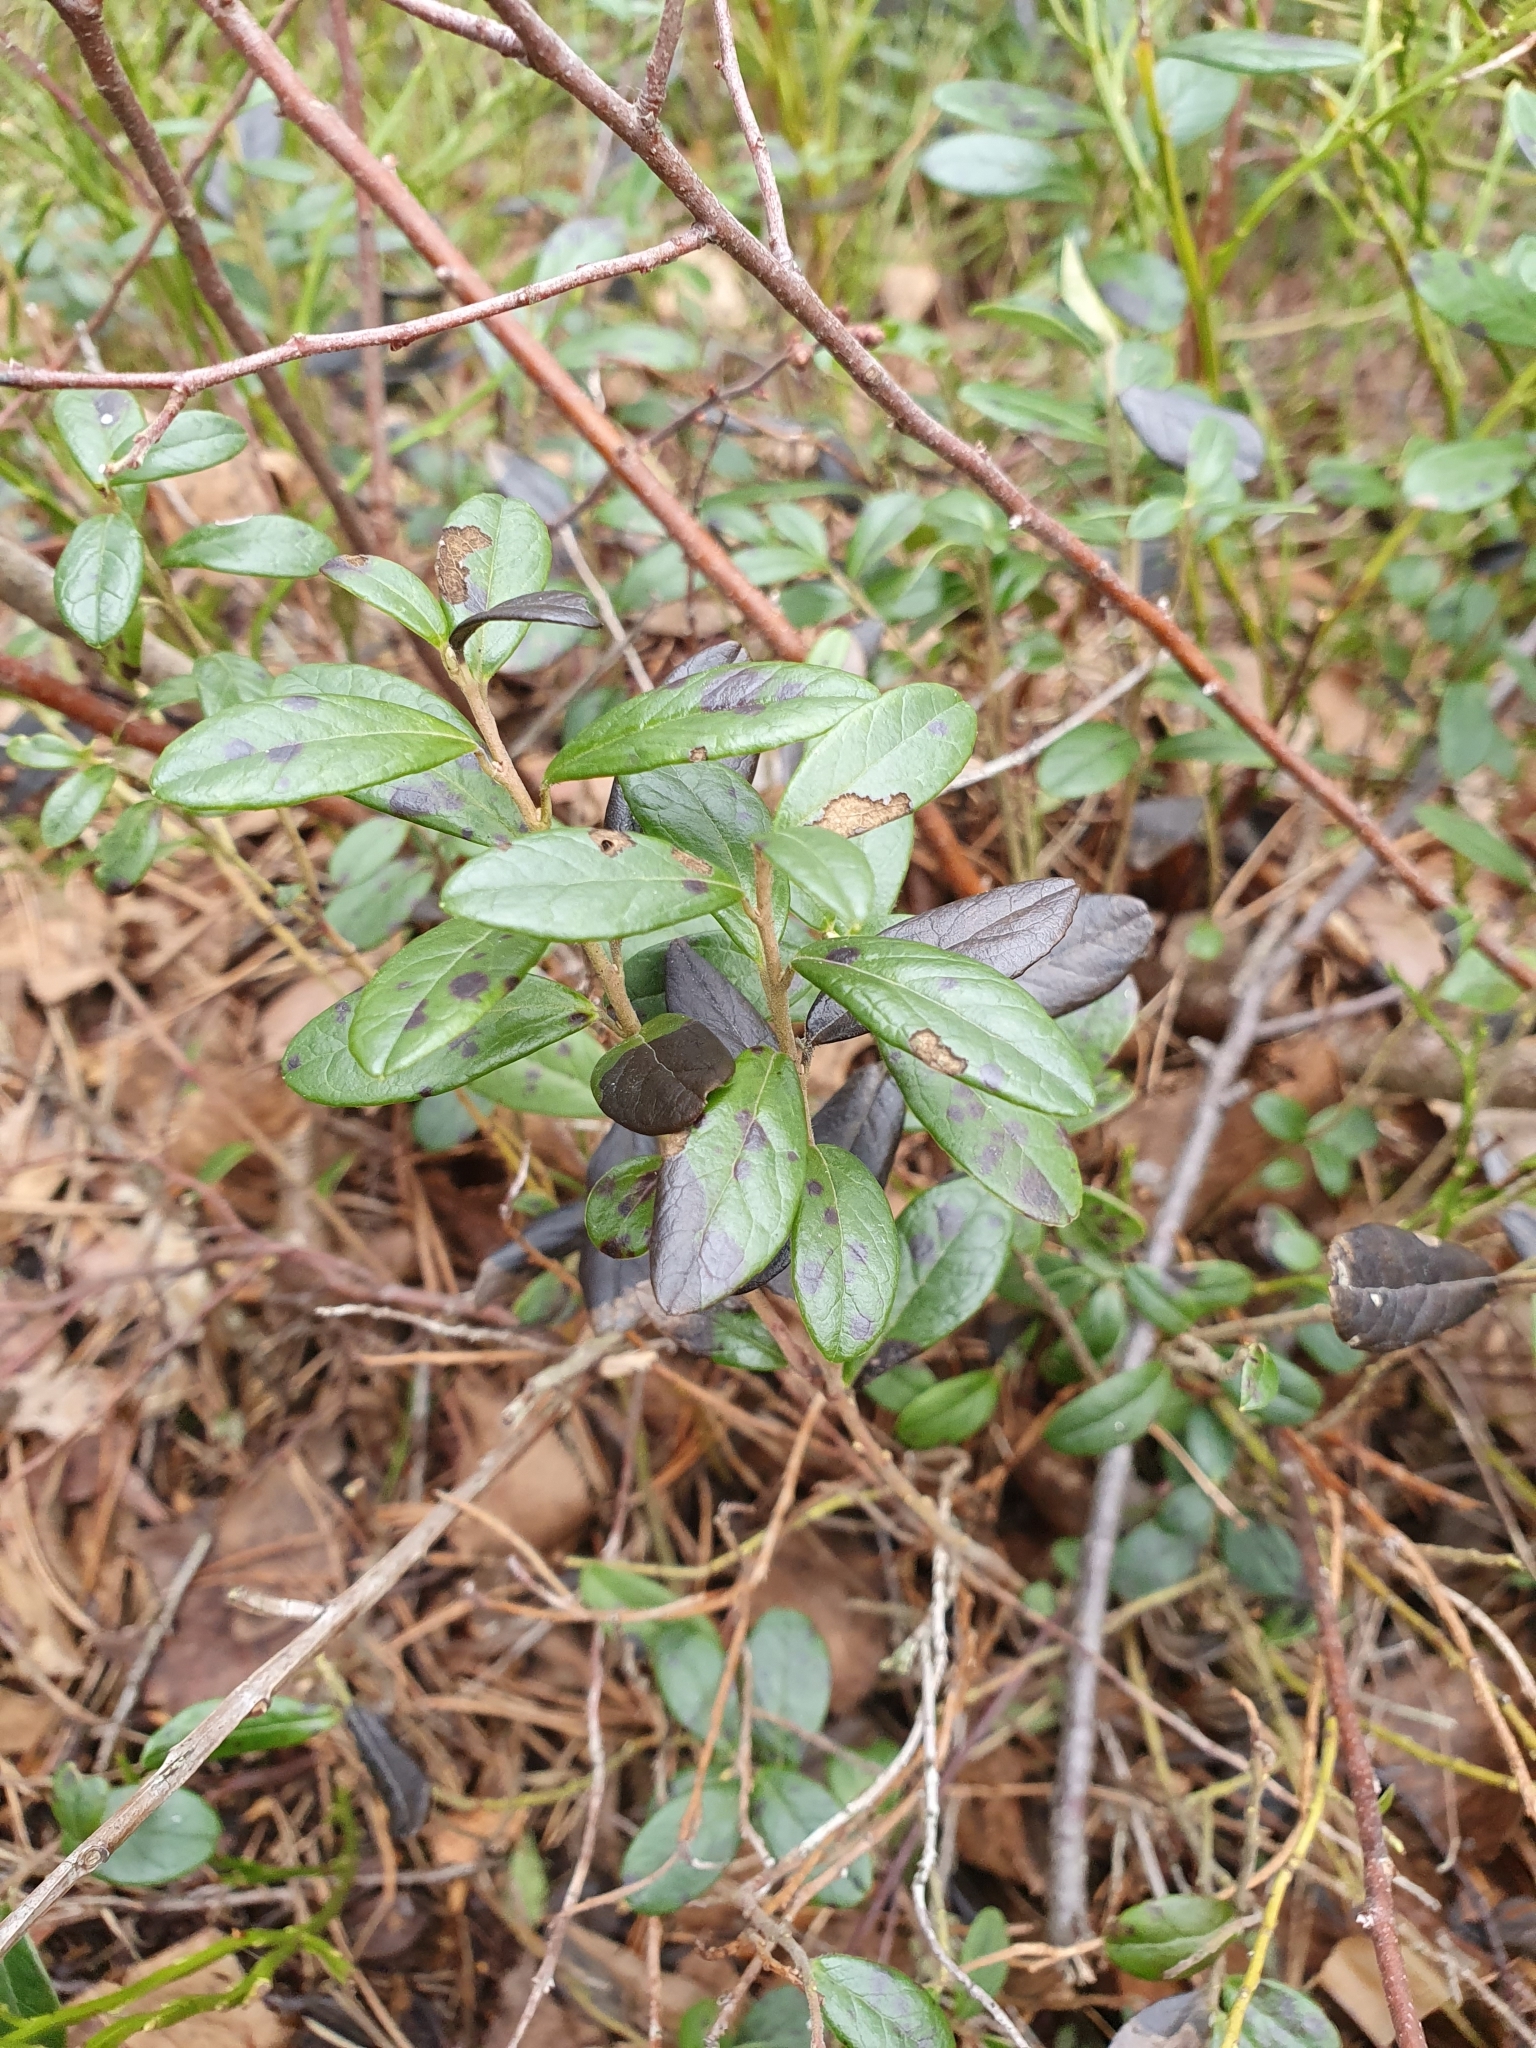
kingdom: Plantae
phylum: Tracheophyta
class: Magnoliopsida
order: Ericales
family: Ericaceae
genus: Vaccinium
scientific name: Vaccinium vitis-idaea
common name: Cowberry
